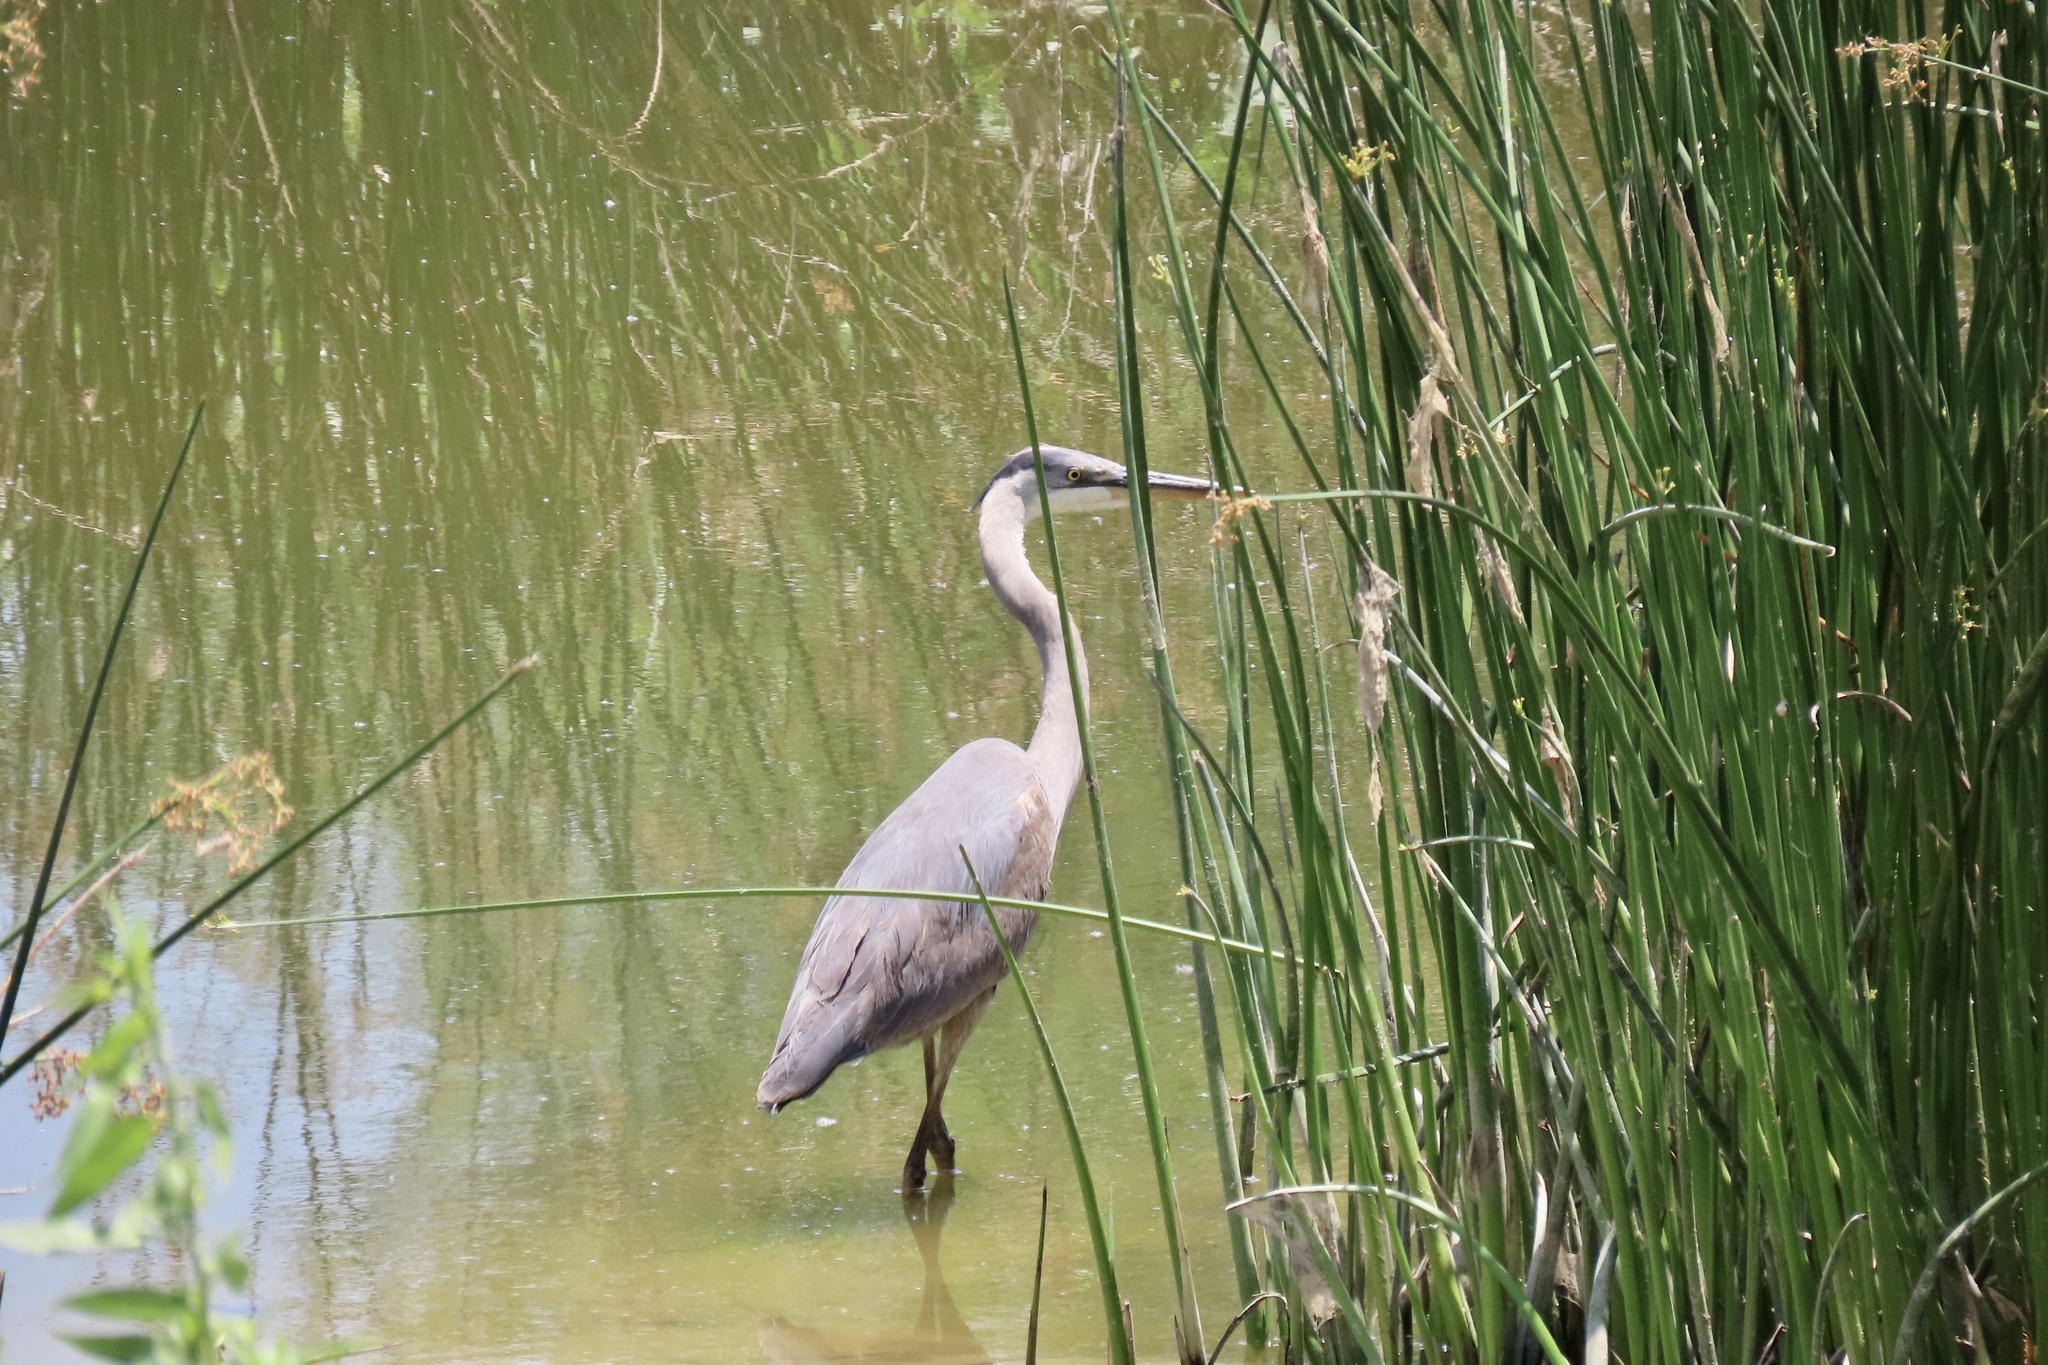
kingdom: Animalia
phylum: Chordata
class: Aves
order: Pelecaniformes
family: Ardeidae
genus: Ardea
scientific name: Ardea herodias
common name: Great blue heron
